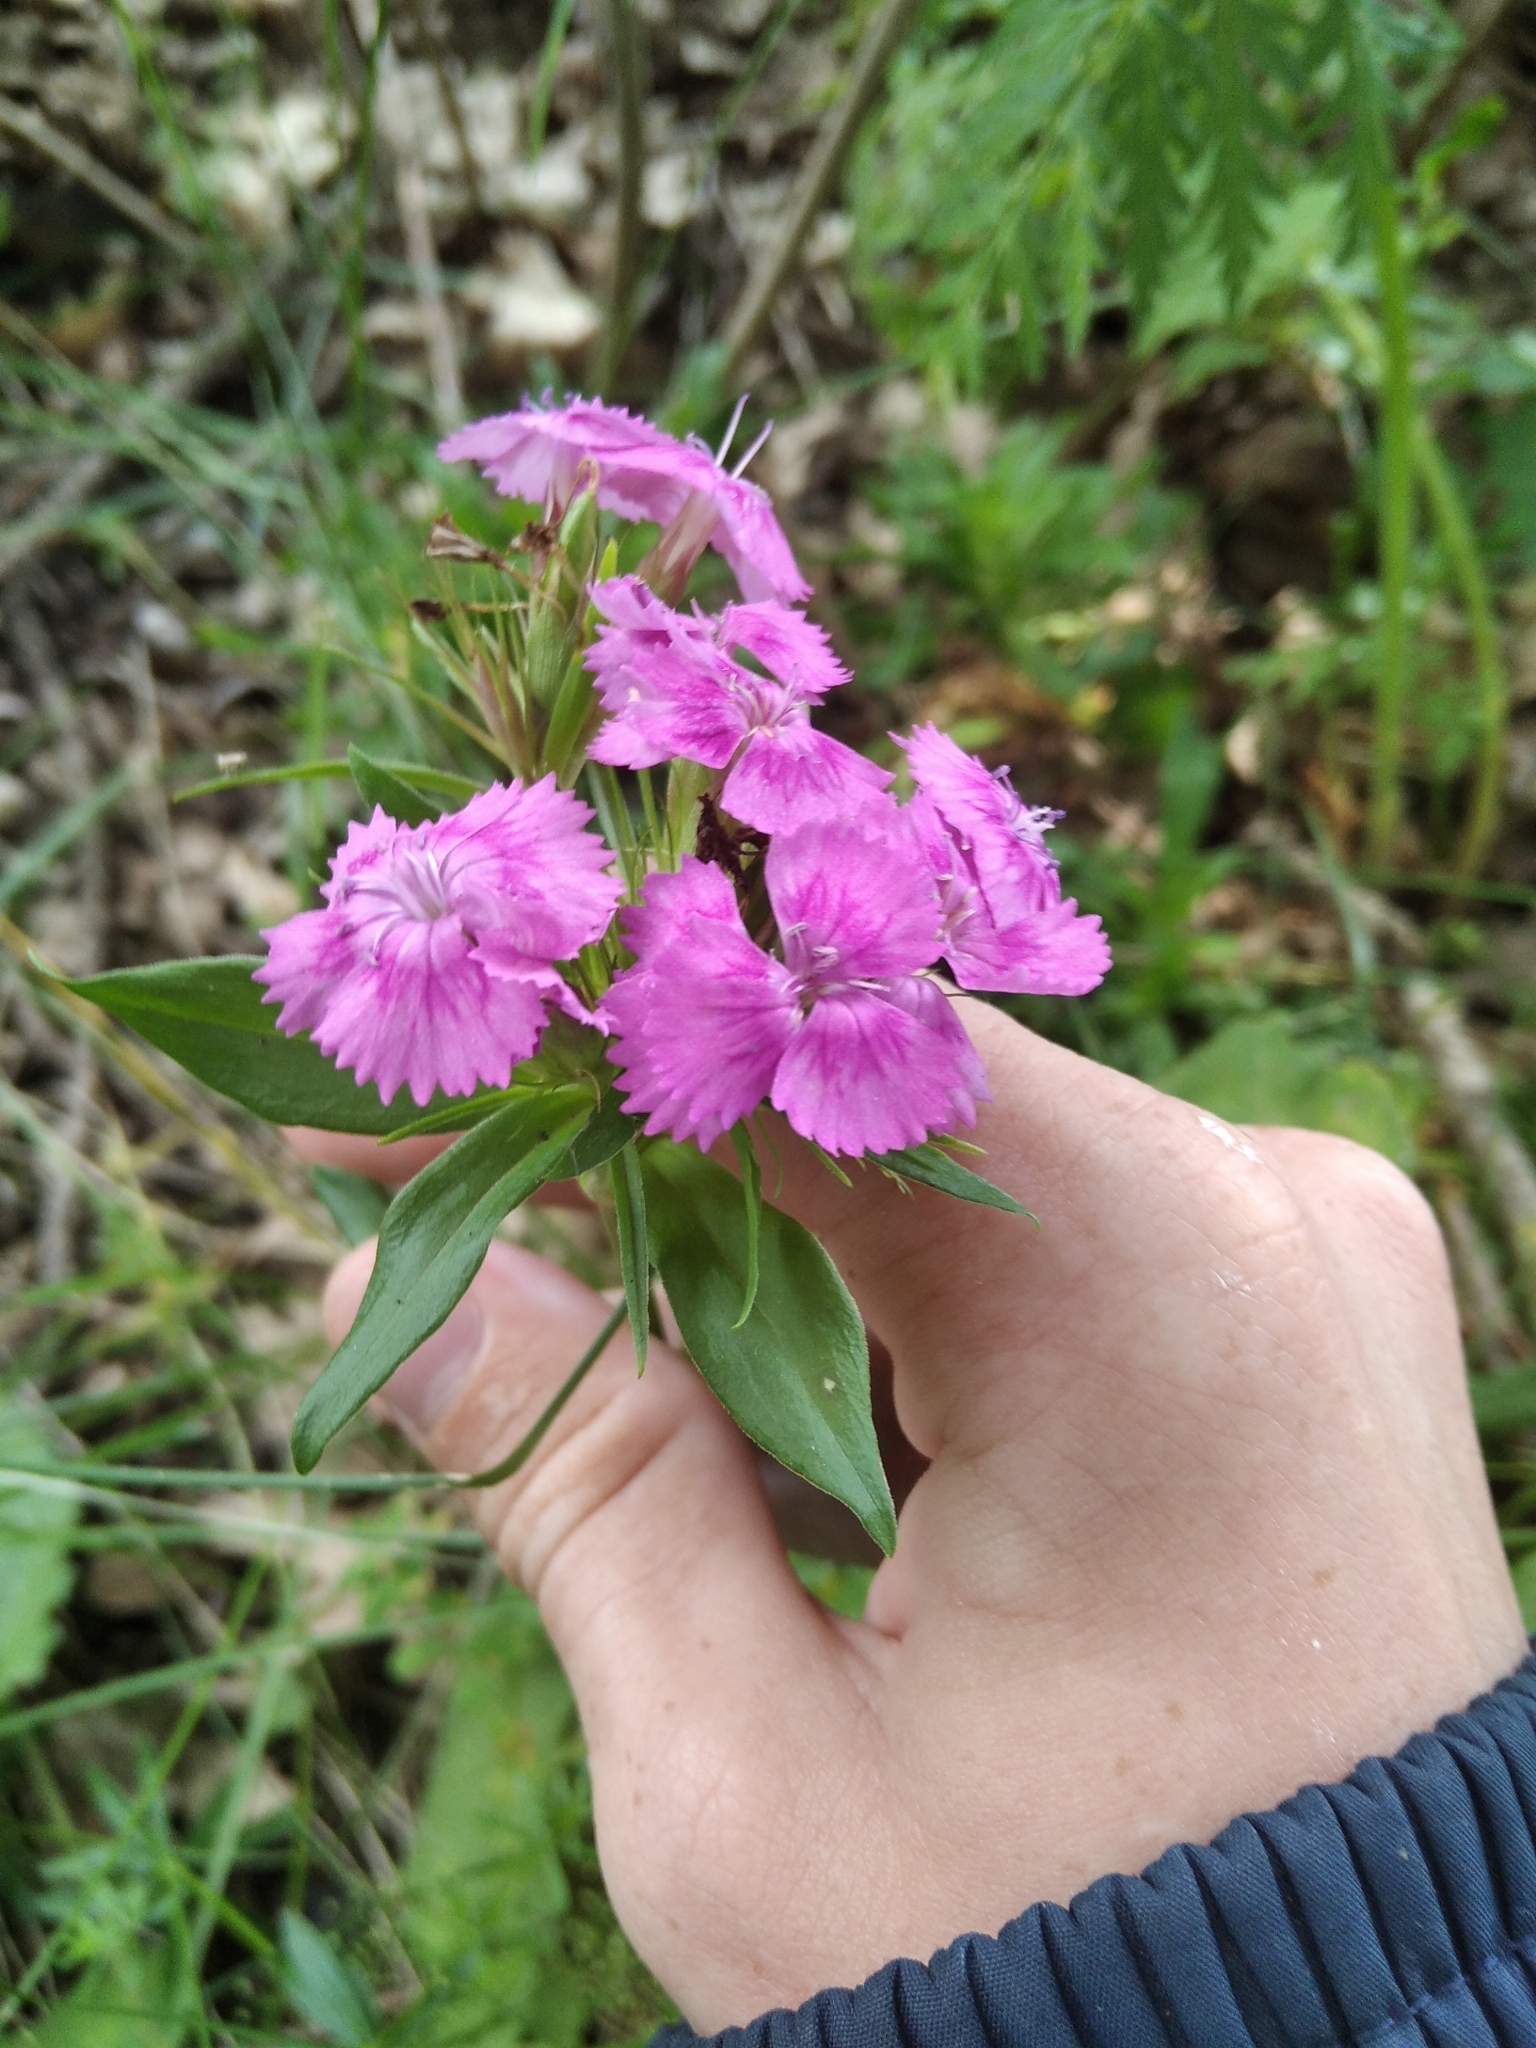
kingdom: Plantae
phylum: Tracheophyta
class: Magnoliopsida
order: Caryophyllales
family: Caryophyllaceae
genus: Dianthus
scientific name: Dianthus barbatus
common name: Sweet-william
